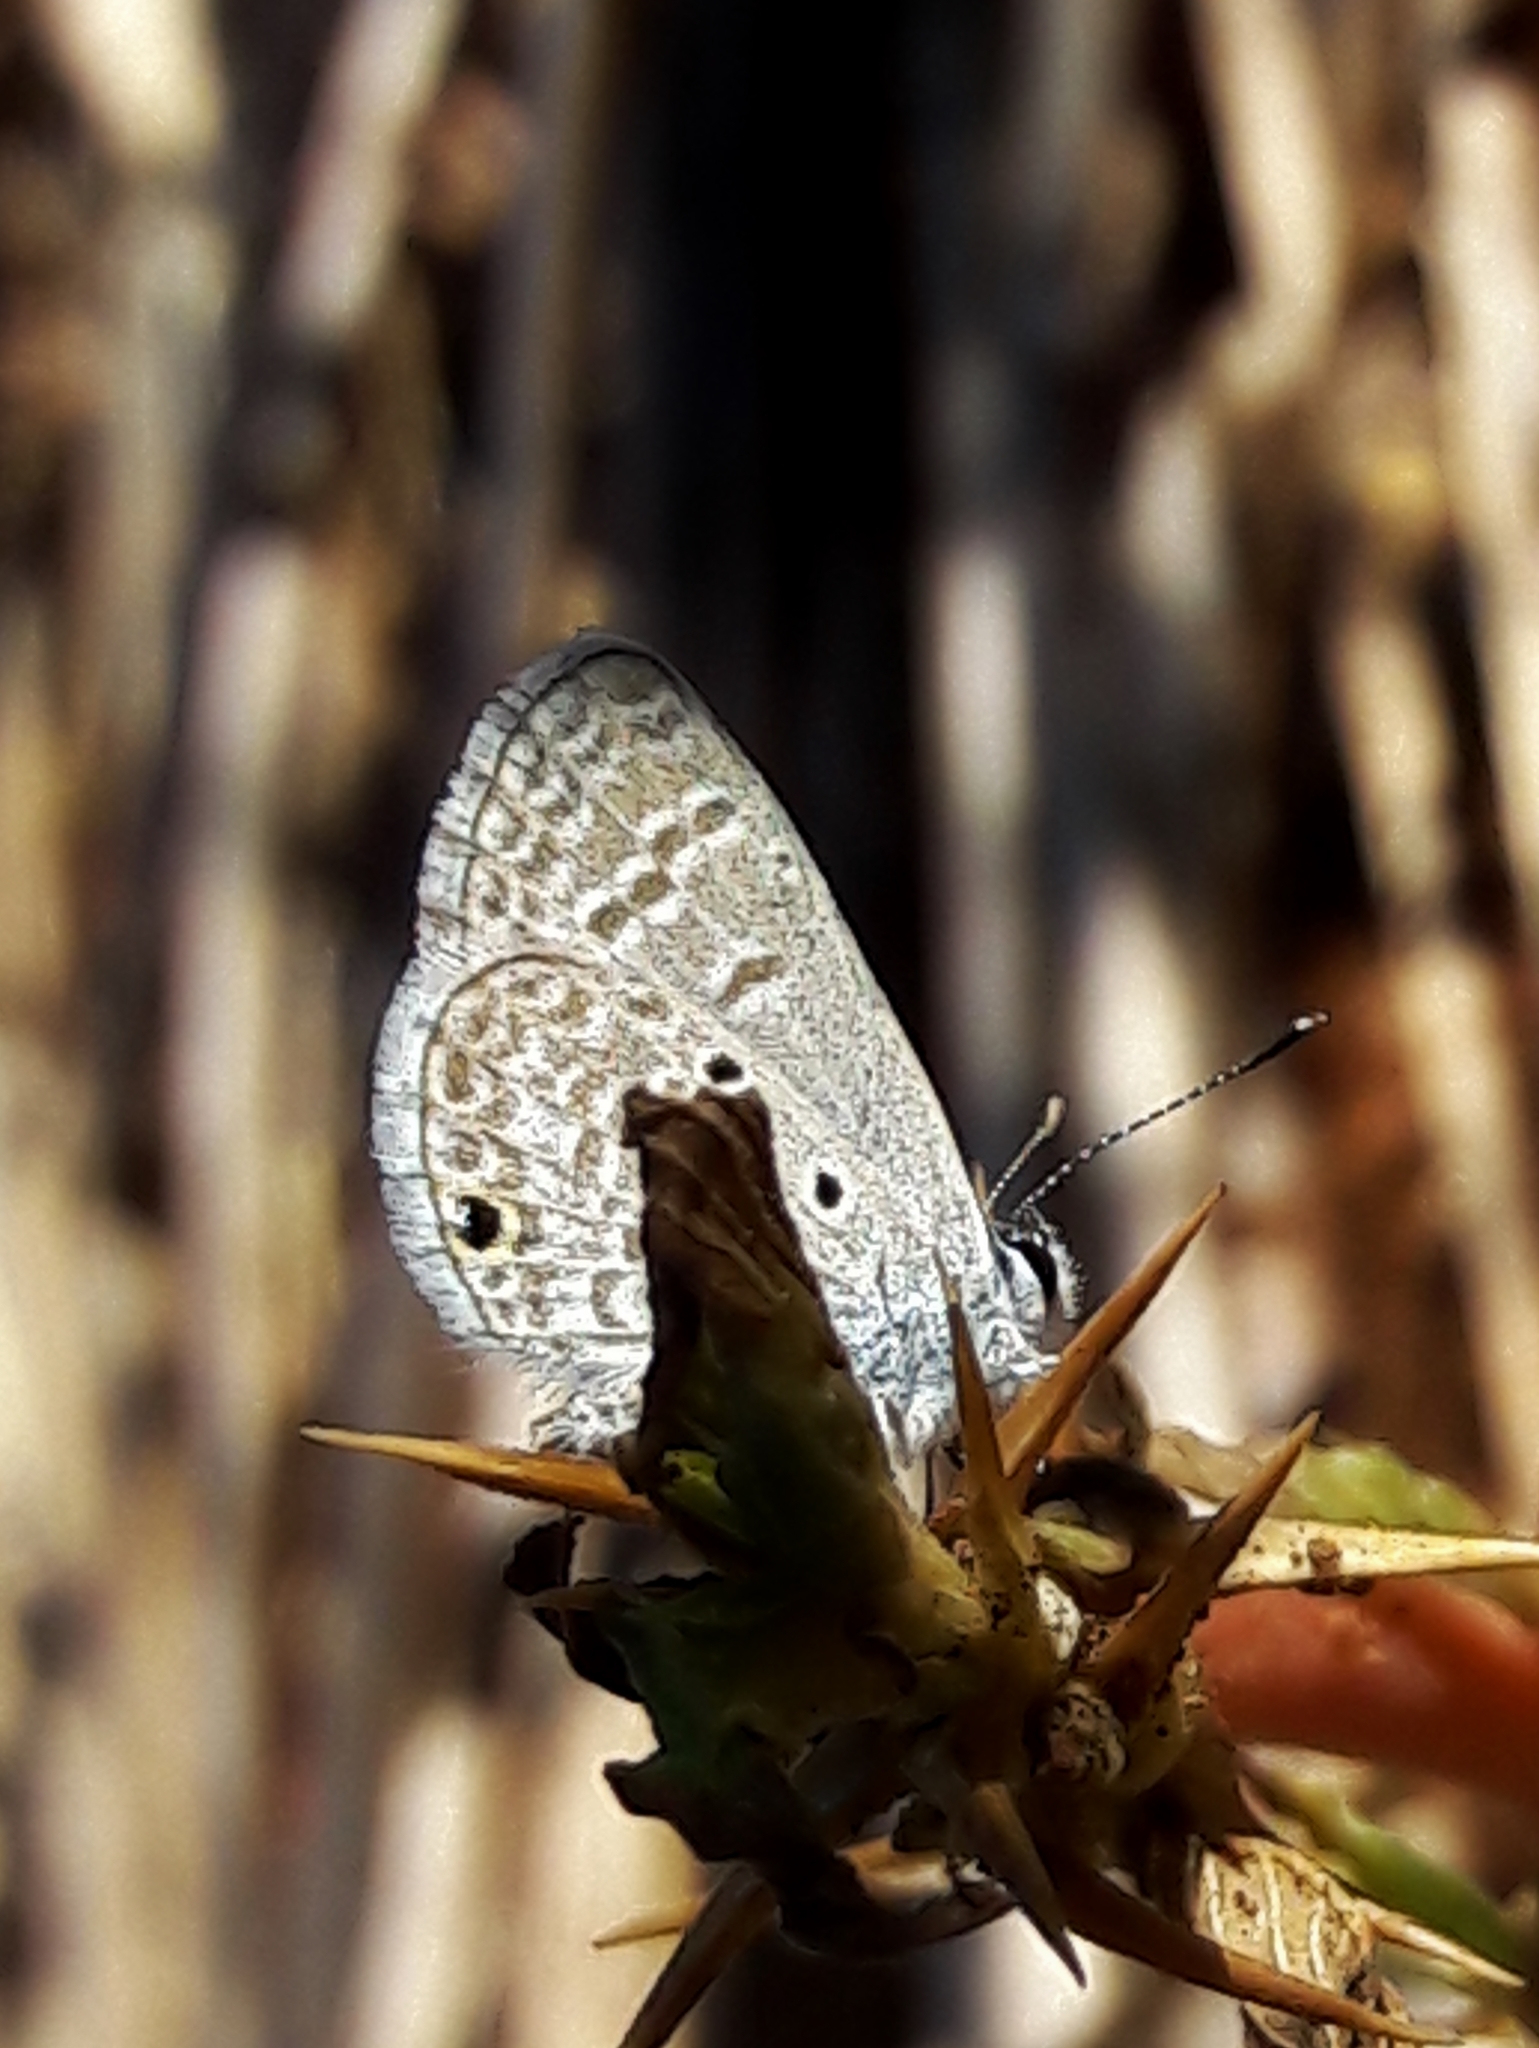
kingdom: Animalia
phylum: Arthropoda
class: Insecta
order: Lepidoptera
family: Lycaenidae
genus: Hemiargus
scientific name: Hemiargus hanno
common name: Common blue
